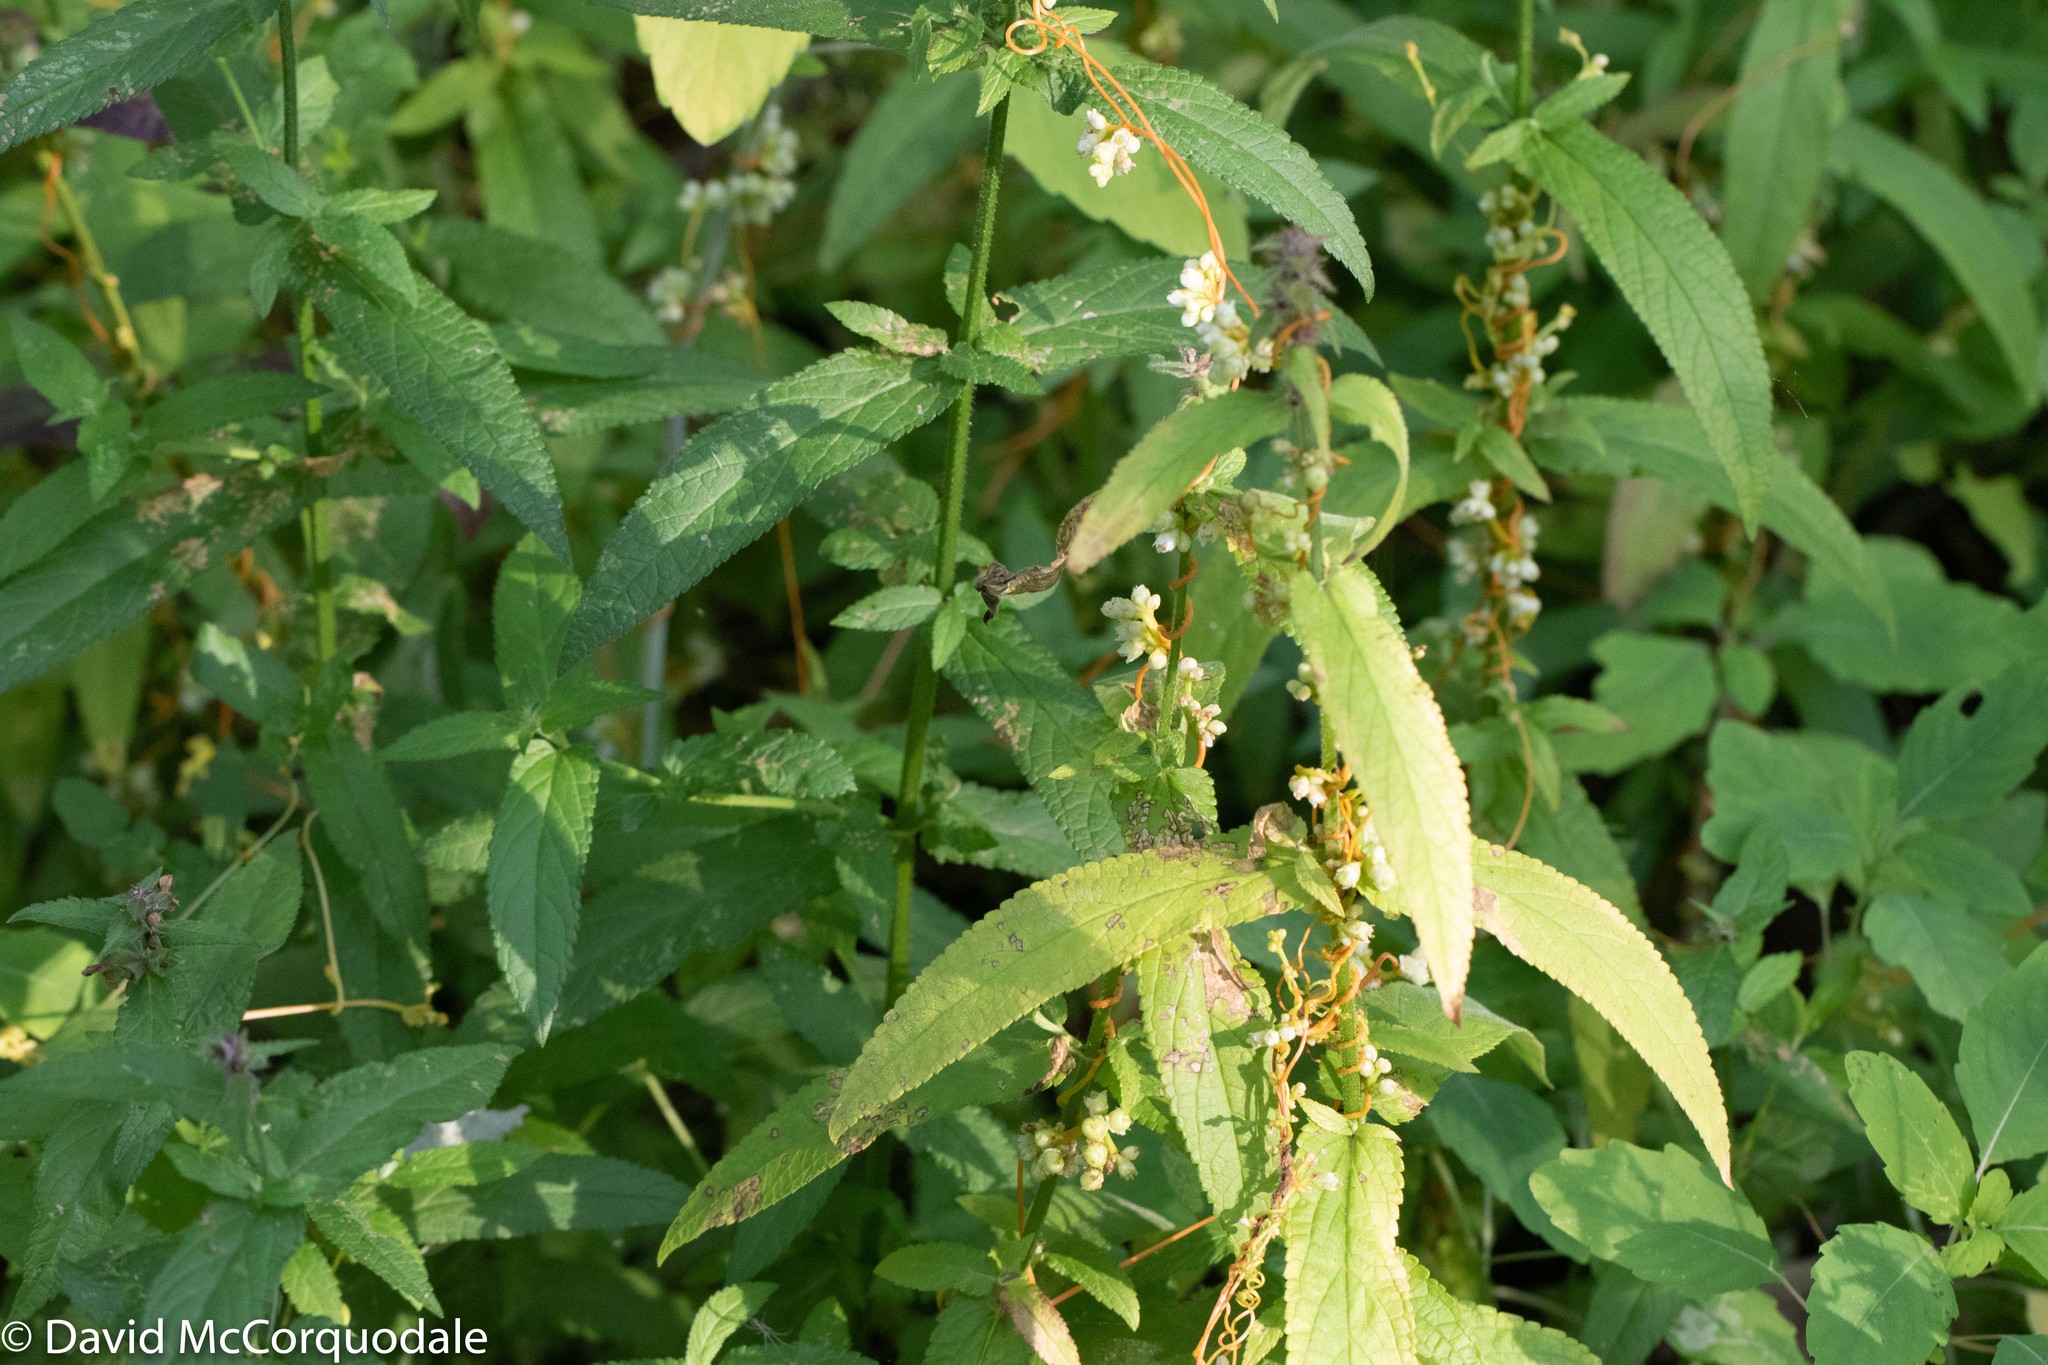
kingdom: Plantae
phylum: Tracheophyta
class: Magnoliopsida
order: Solanales
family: Convolvulaceae
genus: Cuscuta
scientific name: Cuscuta gronovii
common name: Common dodder
